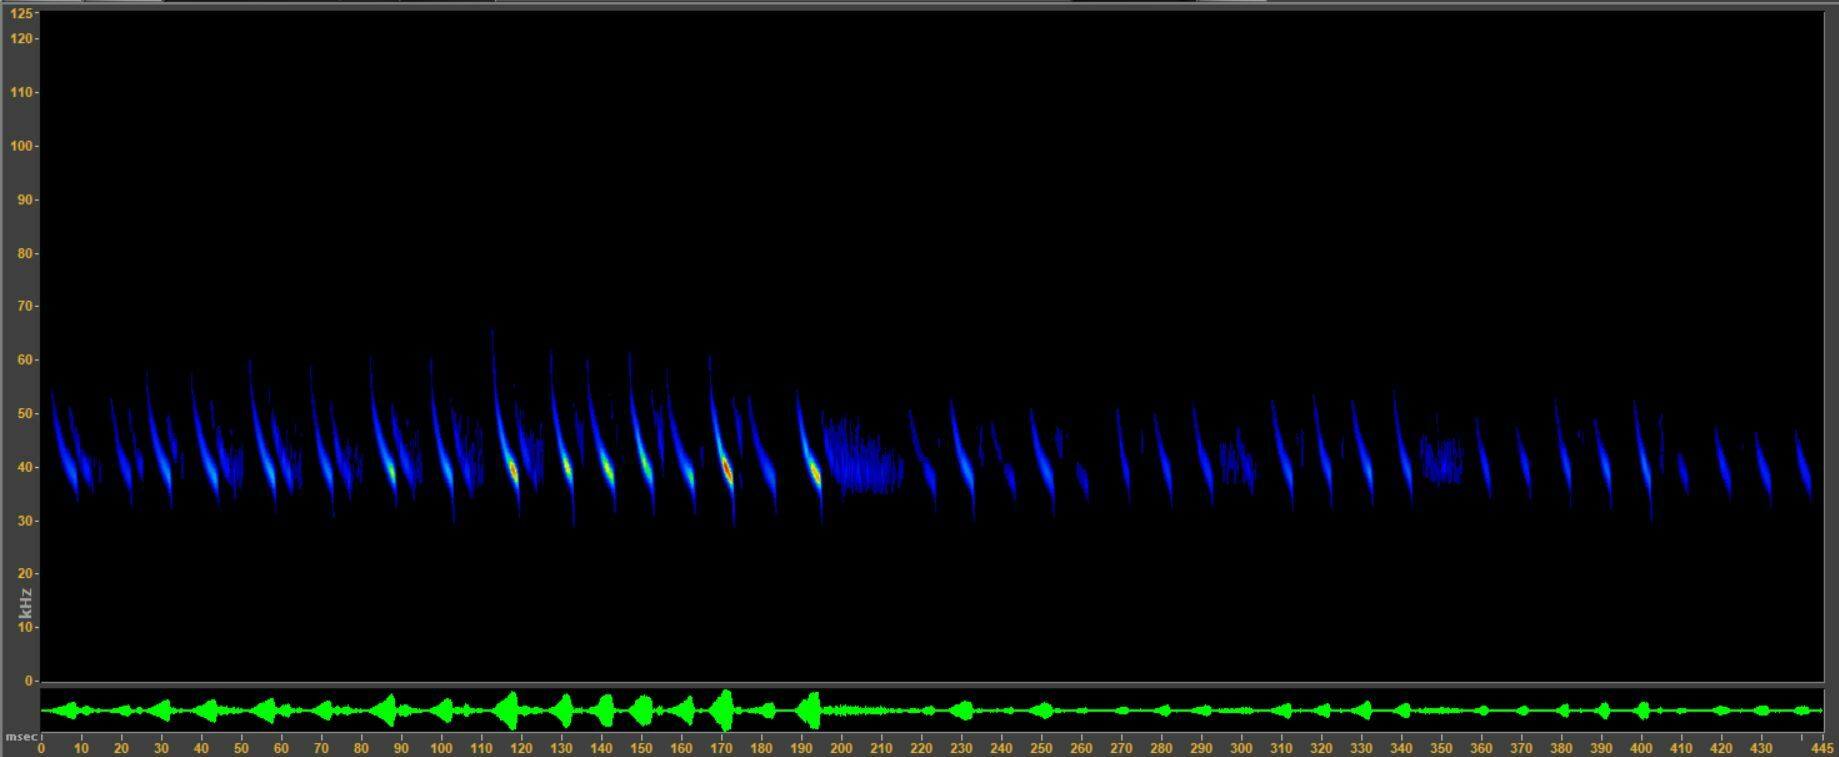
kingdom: Animalia
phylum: Chordata
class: Mammalia
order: Chiroptera
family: Vespertilionidae
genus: Myotis
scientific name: Myotis lucifugus
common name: Little brown bat
